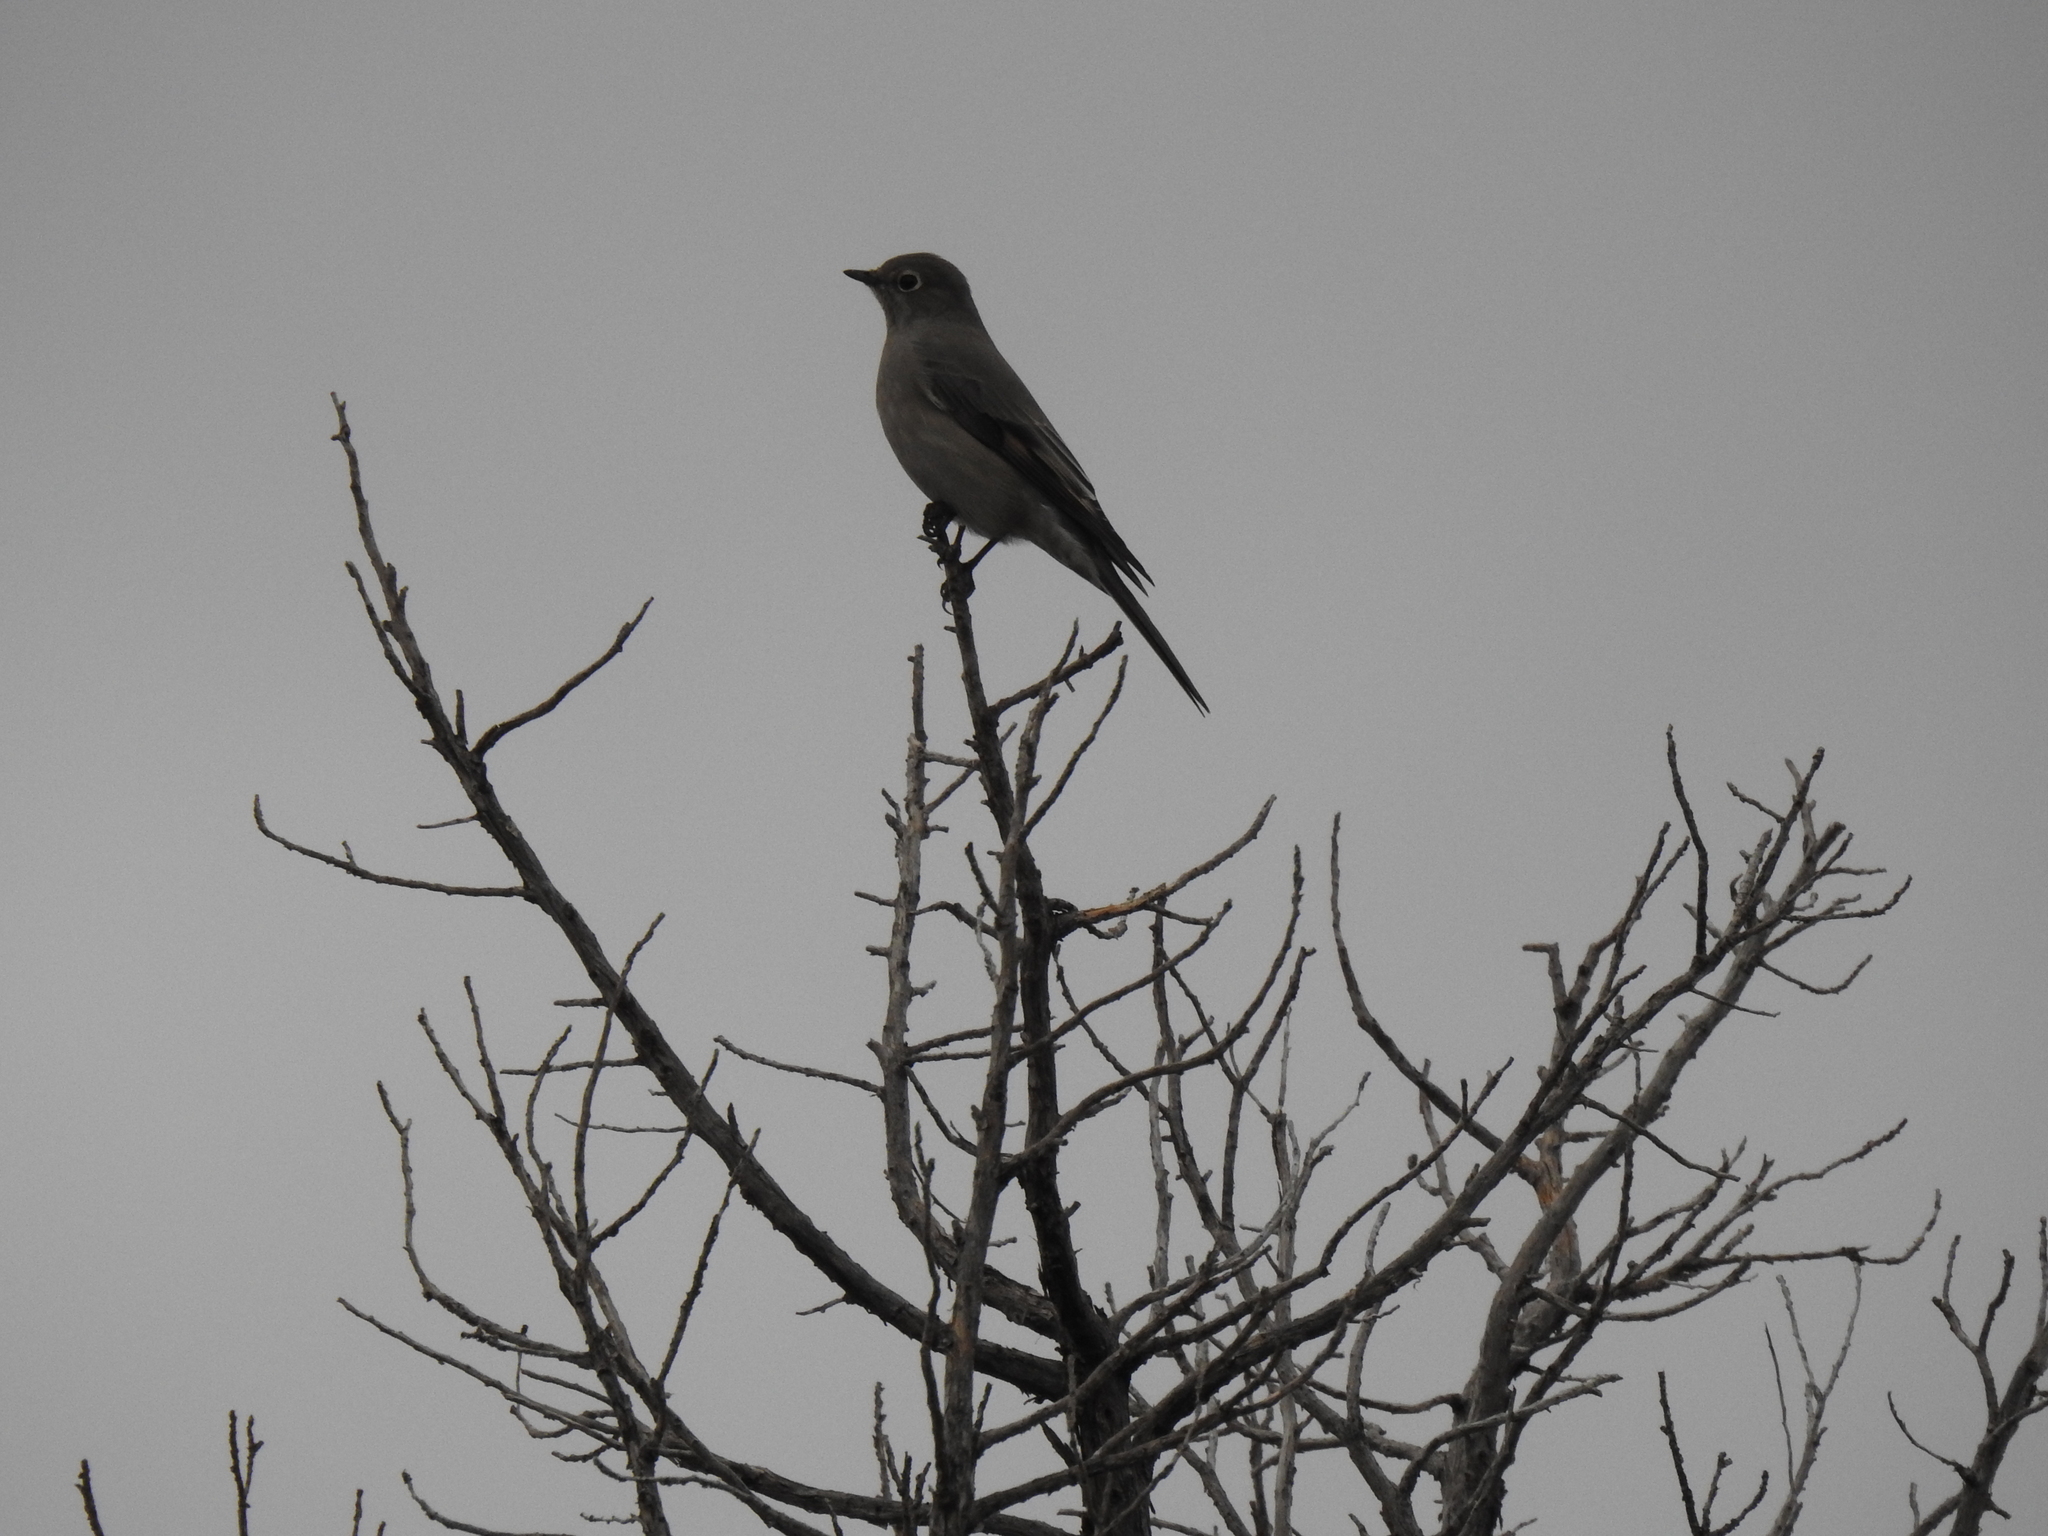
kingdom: Animalia
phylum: Chordata
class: Aves
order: Passeriformes
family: Turdidae
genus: Myadestes
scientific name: Myadestes townsendi
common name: Townsend's solitaire
